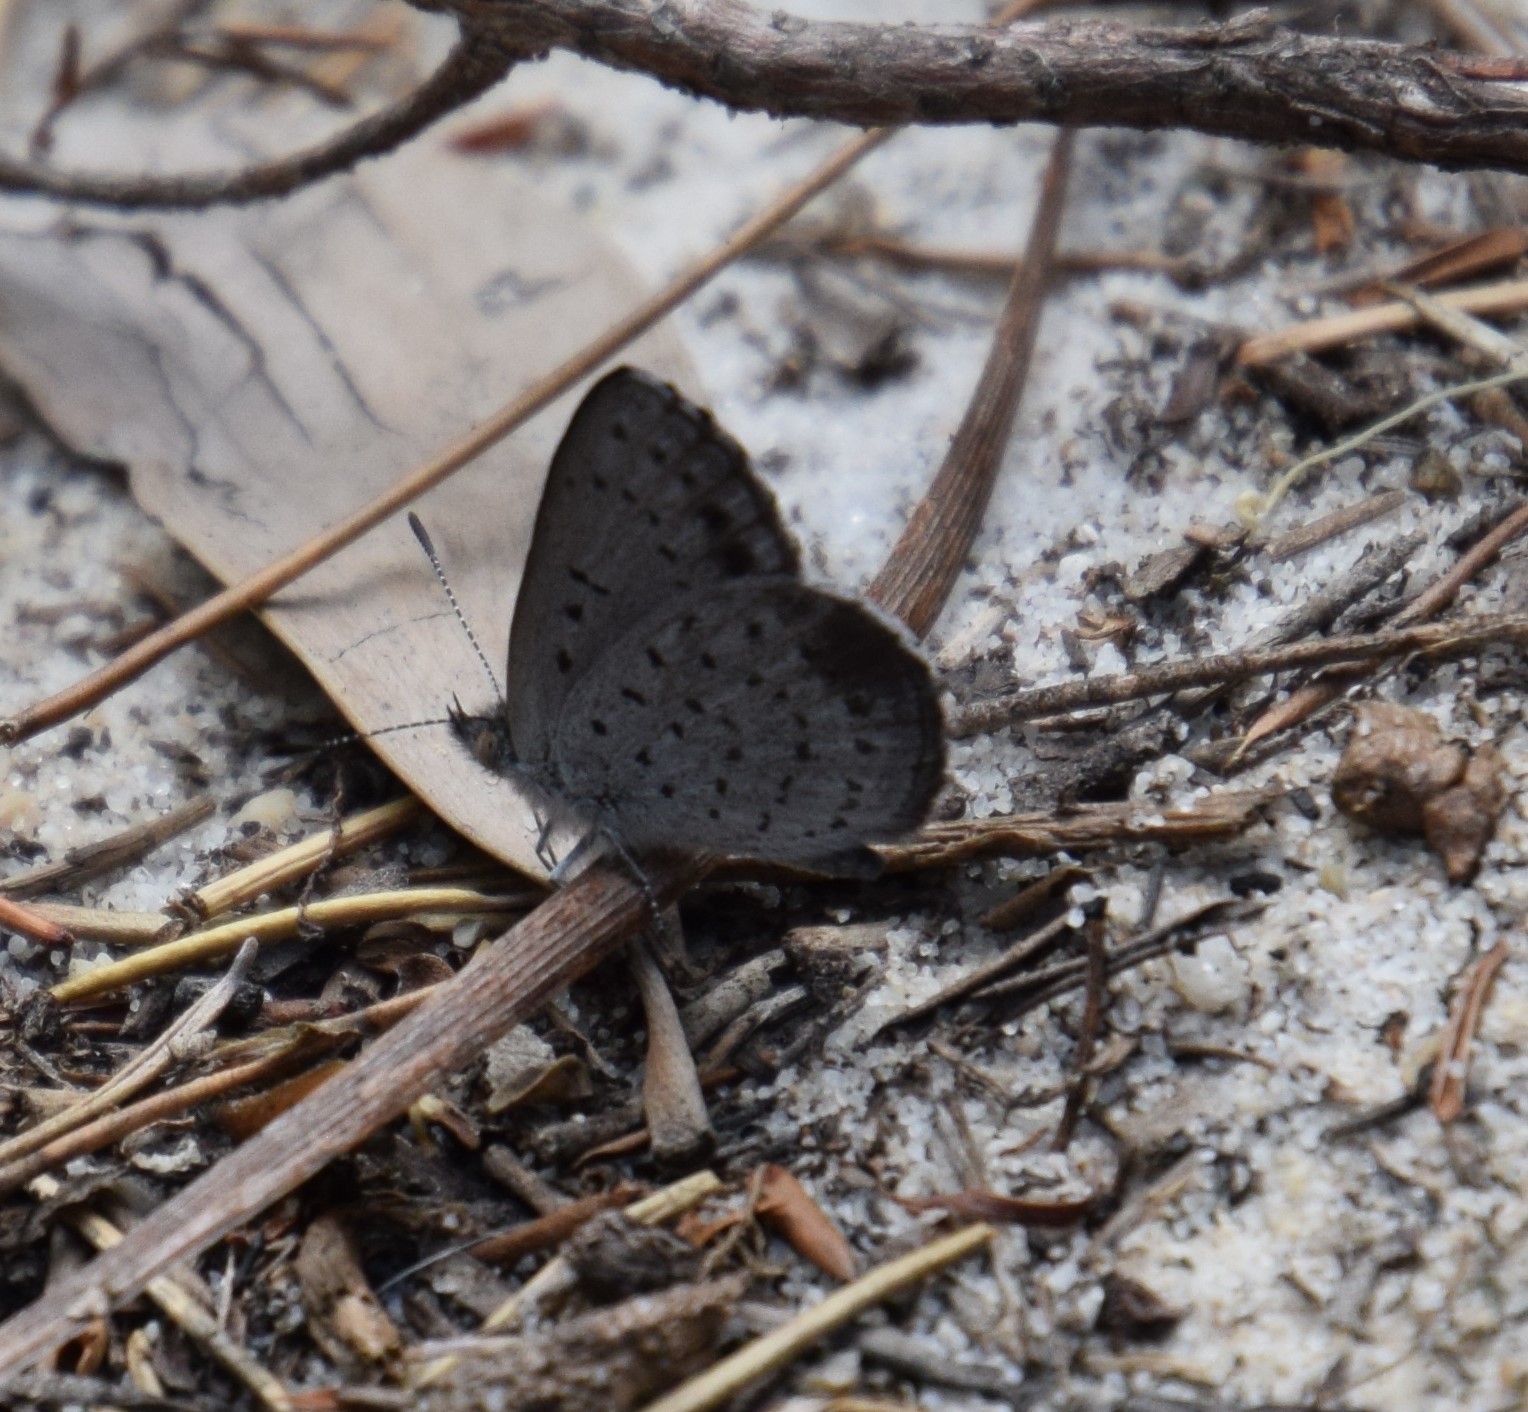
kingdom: Animalia
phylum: Arthropoda
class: Insecta
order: Lepidoptera
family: Lycaenidae
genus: Candalides
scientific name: Candalides
